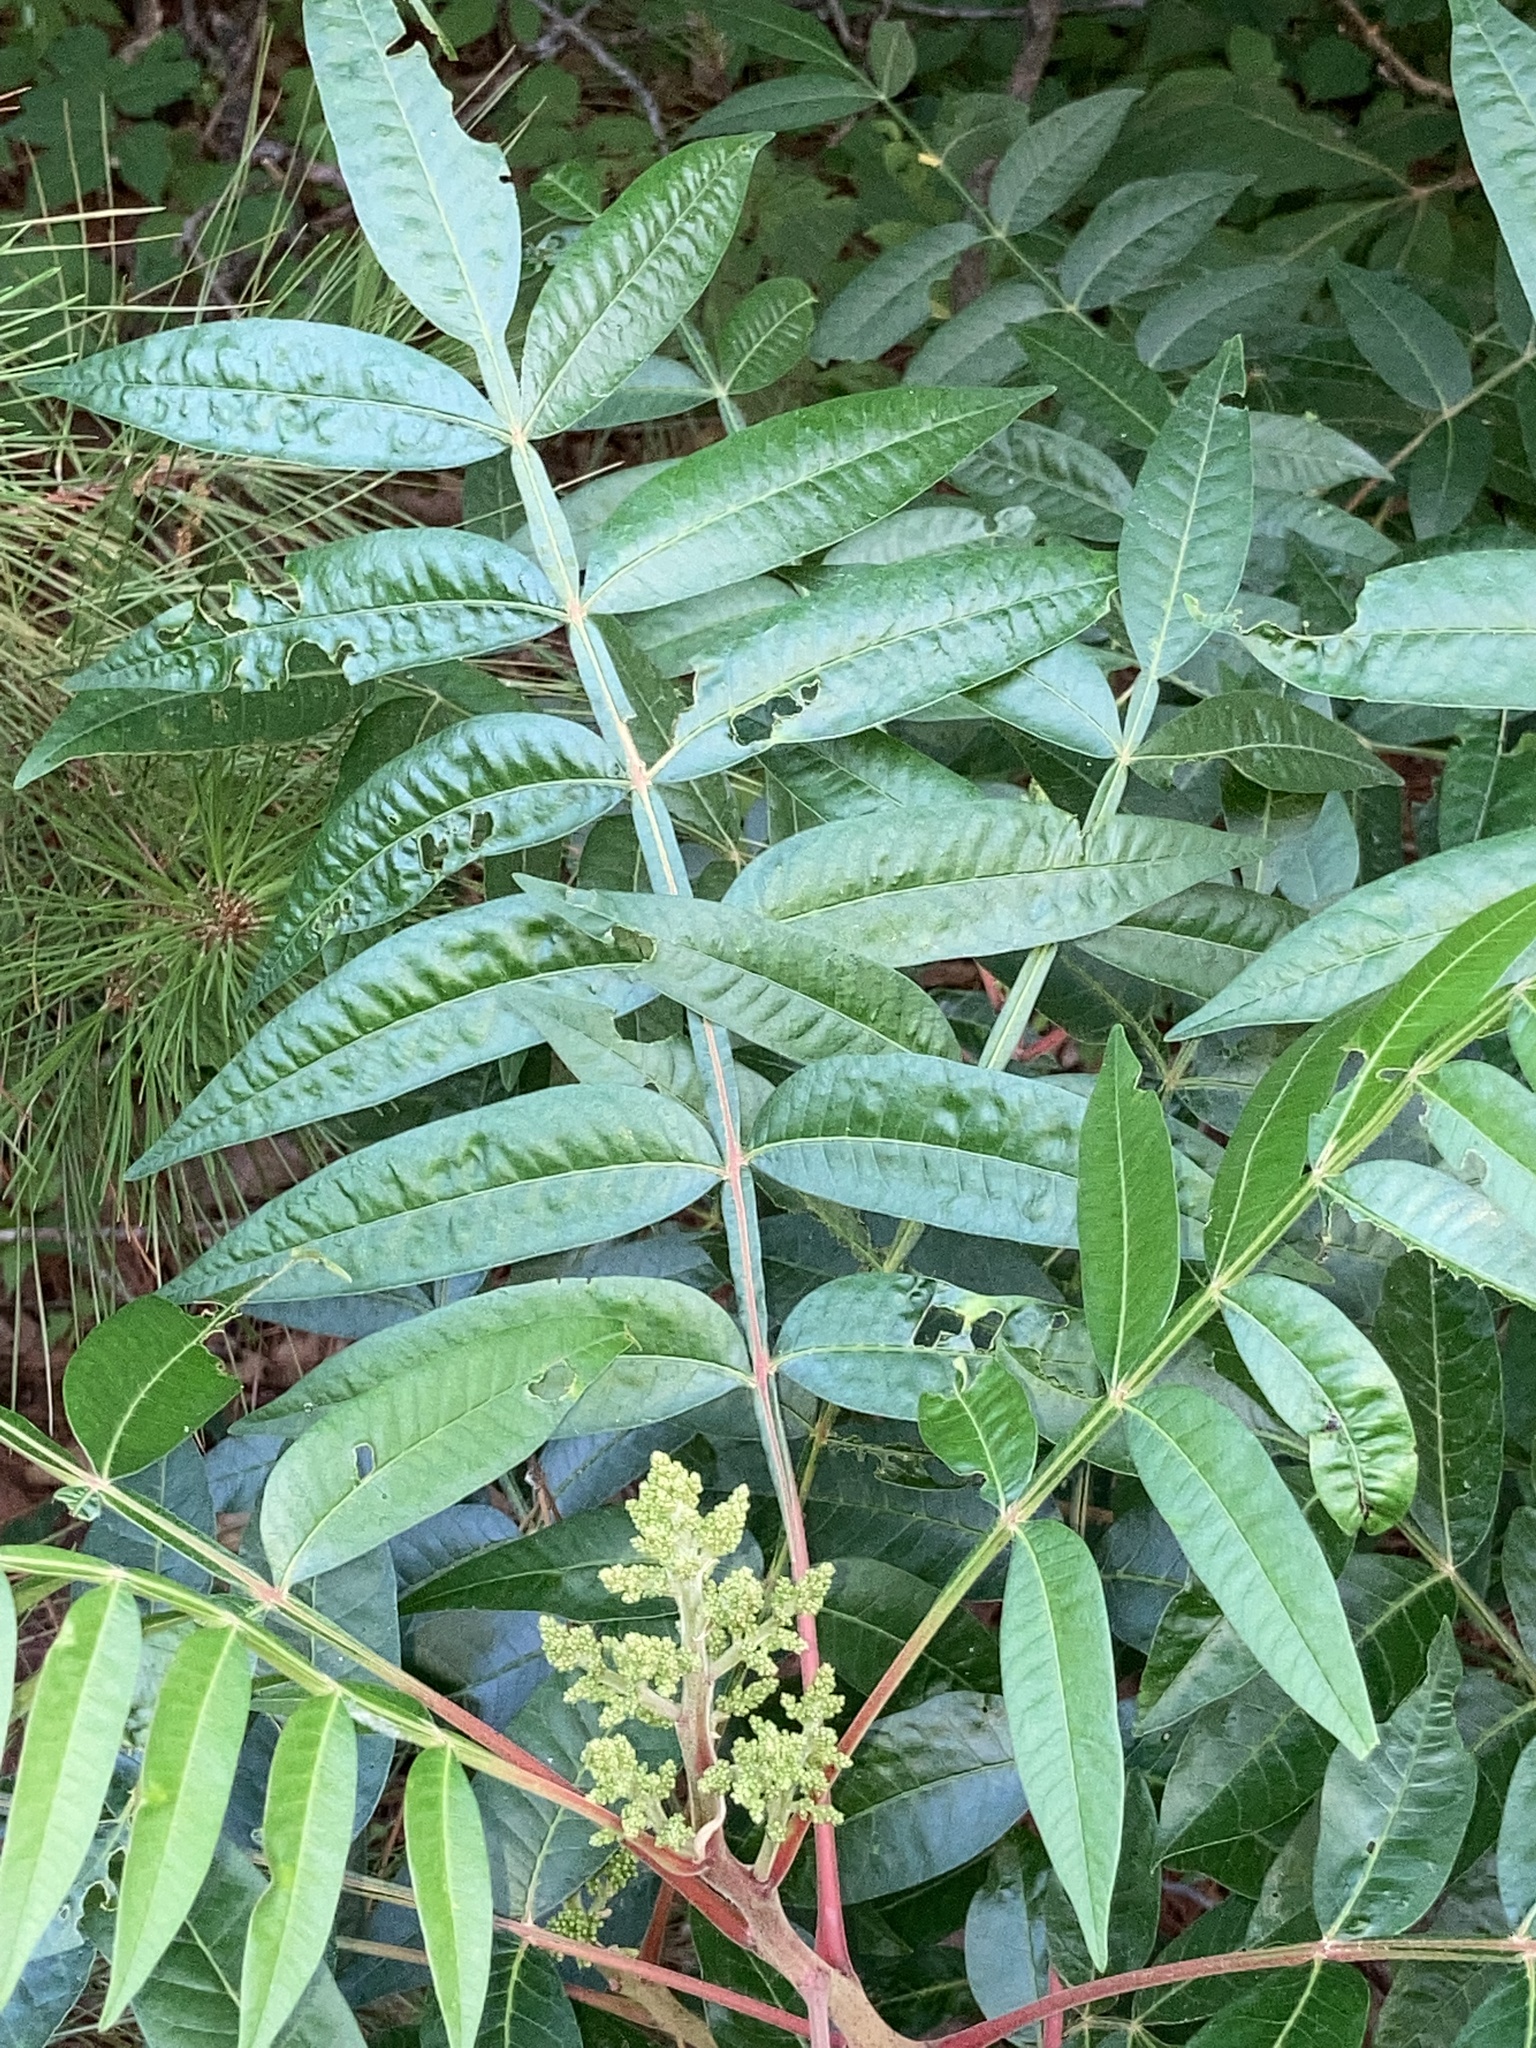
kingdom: Plantae
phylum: Tracheophyta
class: Magnoliopsida
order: Sapindales
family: Anacardiaceae
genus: Rhus
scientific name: Rhus copallina
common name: Shining sumac
